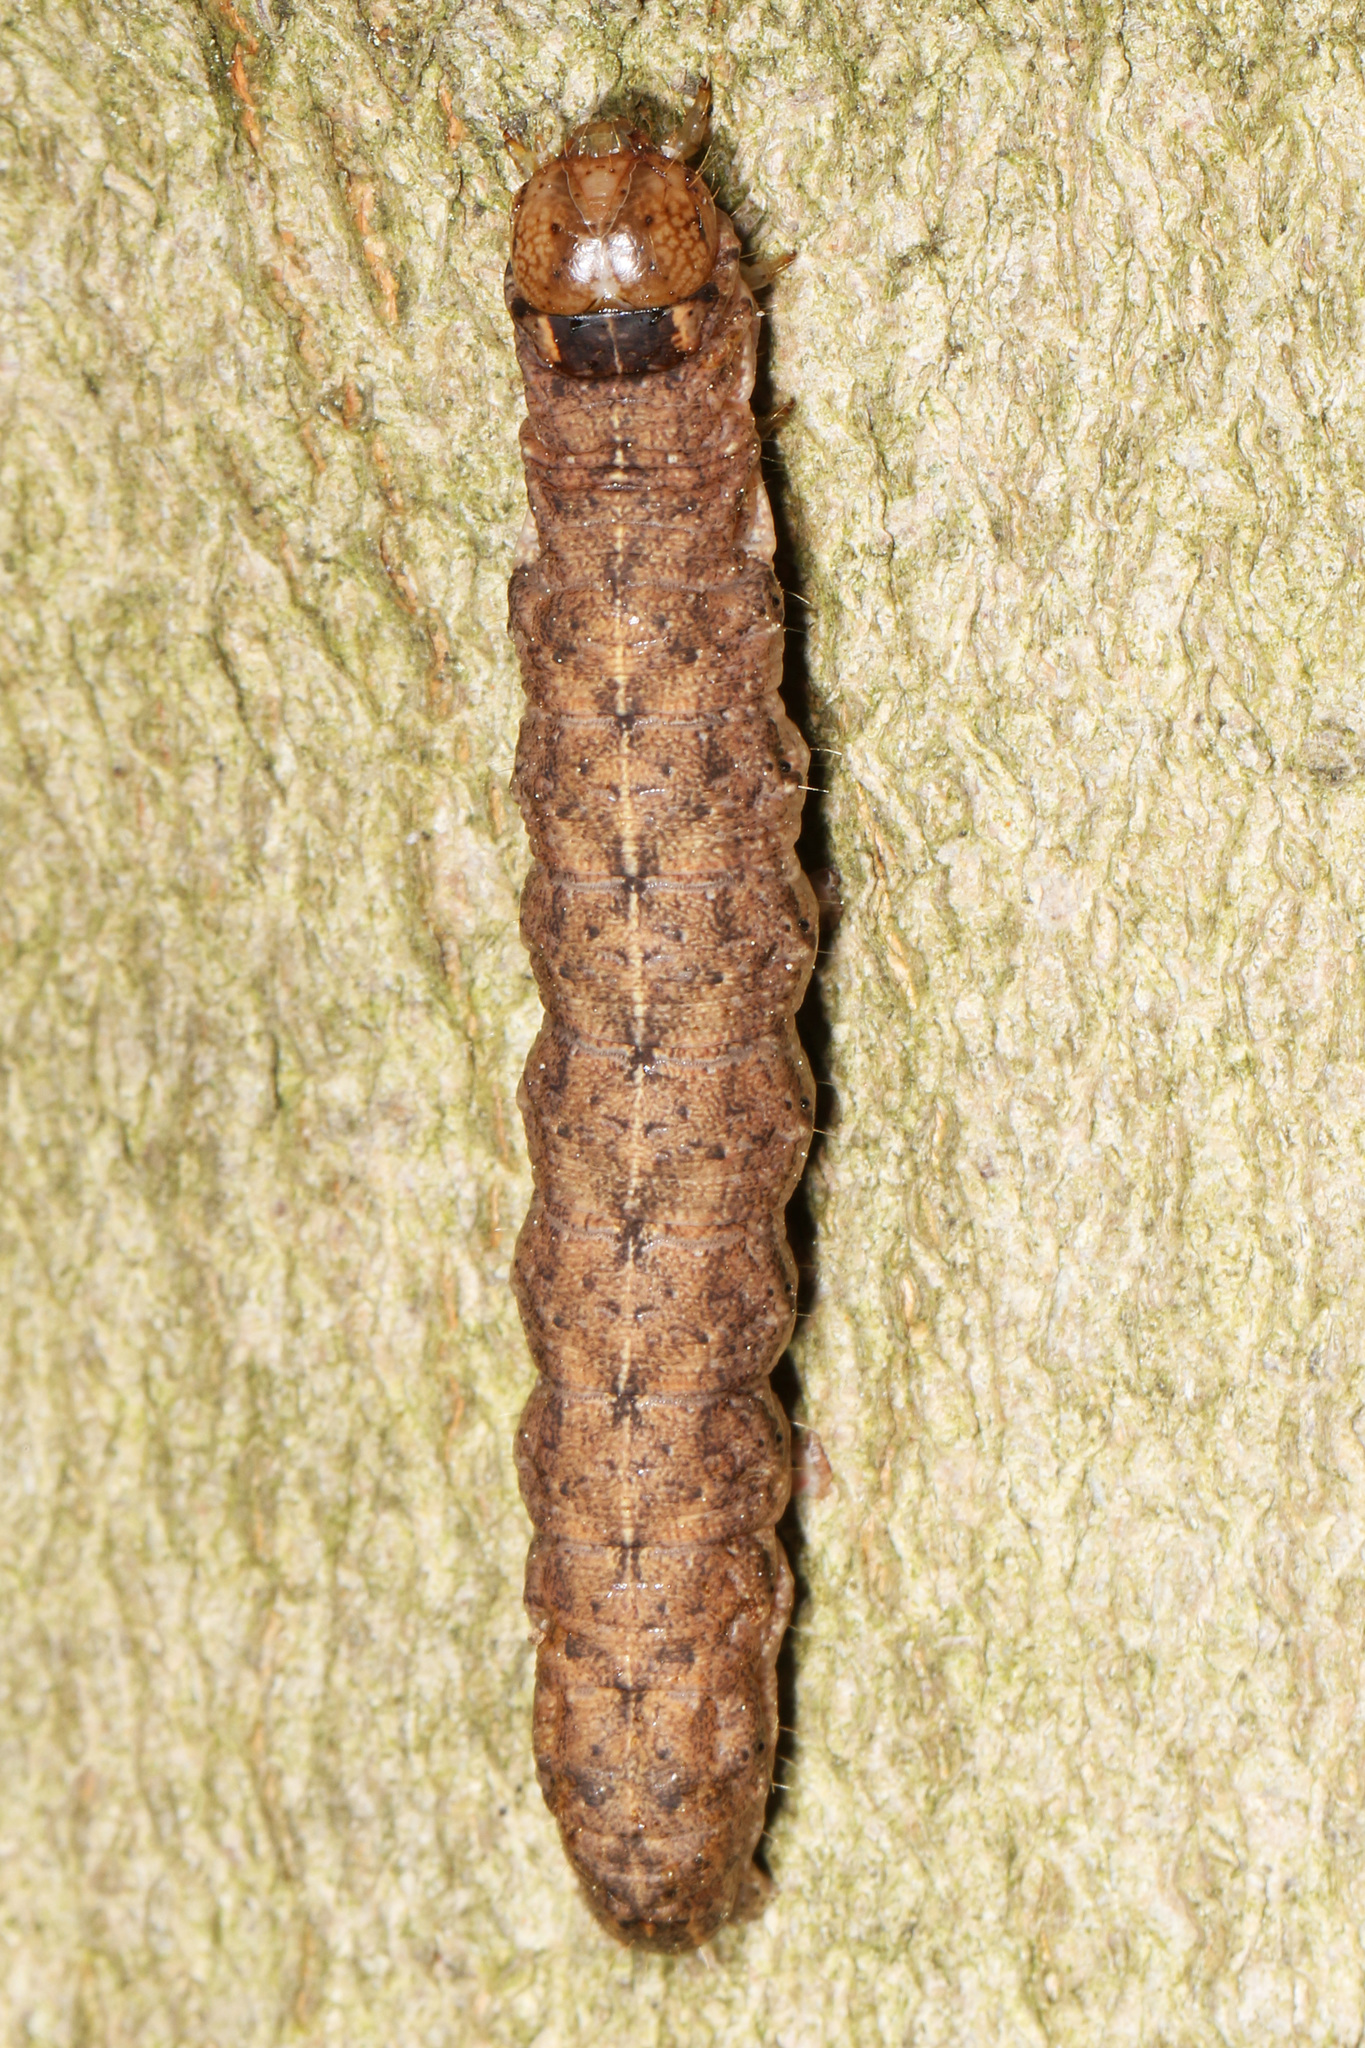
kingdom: Animalia
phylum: Arthropoda
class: Insecta
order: Lepidoptera
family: Noctuidae
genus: Metaxaglaea
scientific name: Metaxaglaea viatica
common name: Roadside sallow
